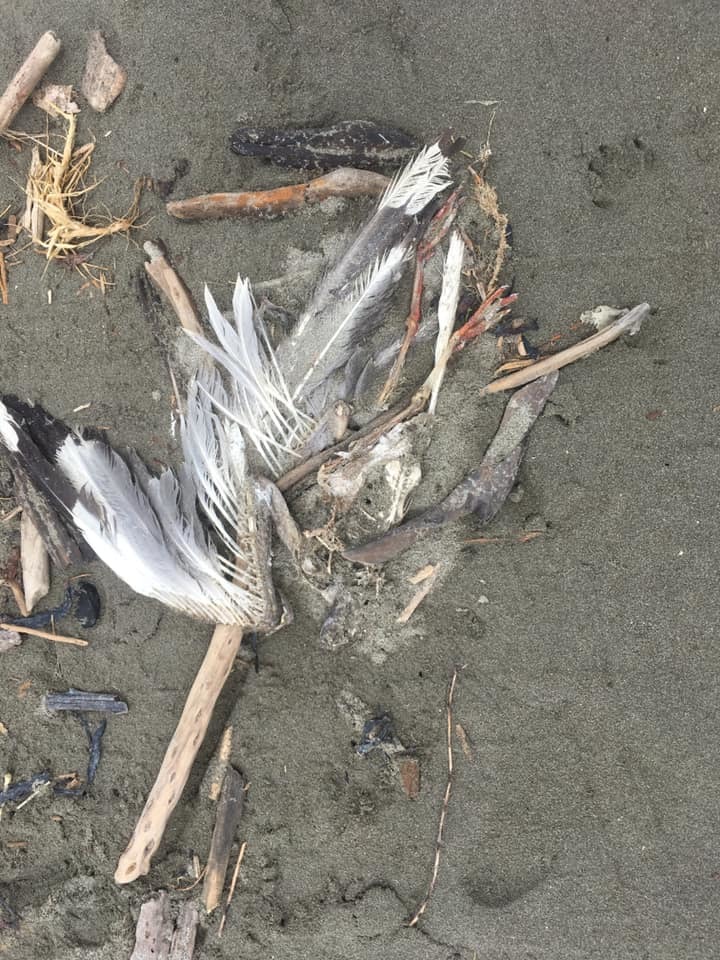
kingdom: Animalia
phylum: Chordata
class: Aves
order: Charadriiformes
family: Laridae
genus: Chroicocephalus
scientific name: Chroicocephalus novaehollandiae
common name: Silver gull
